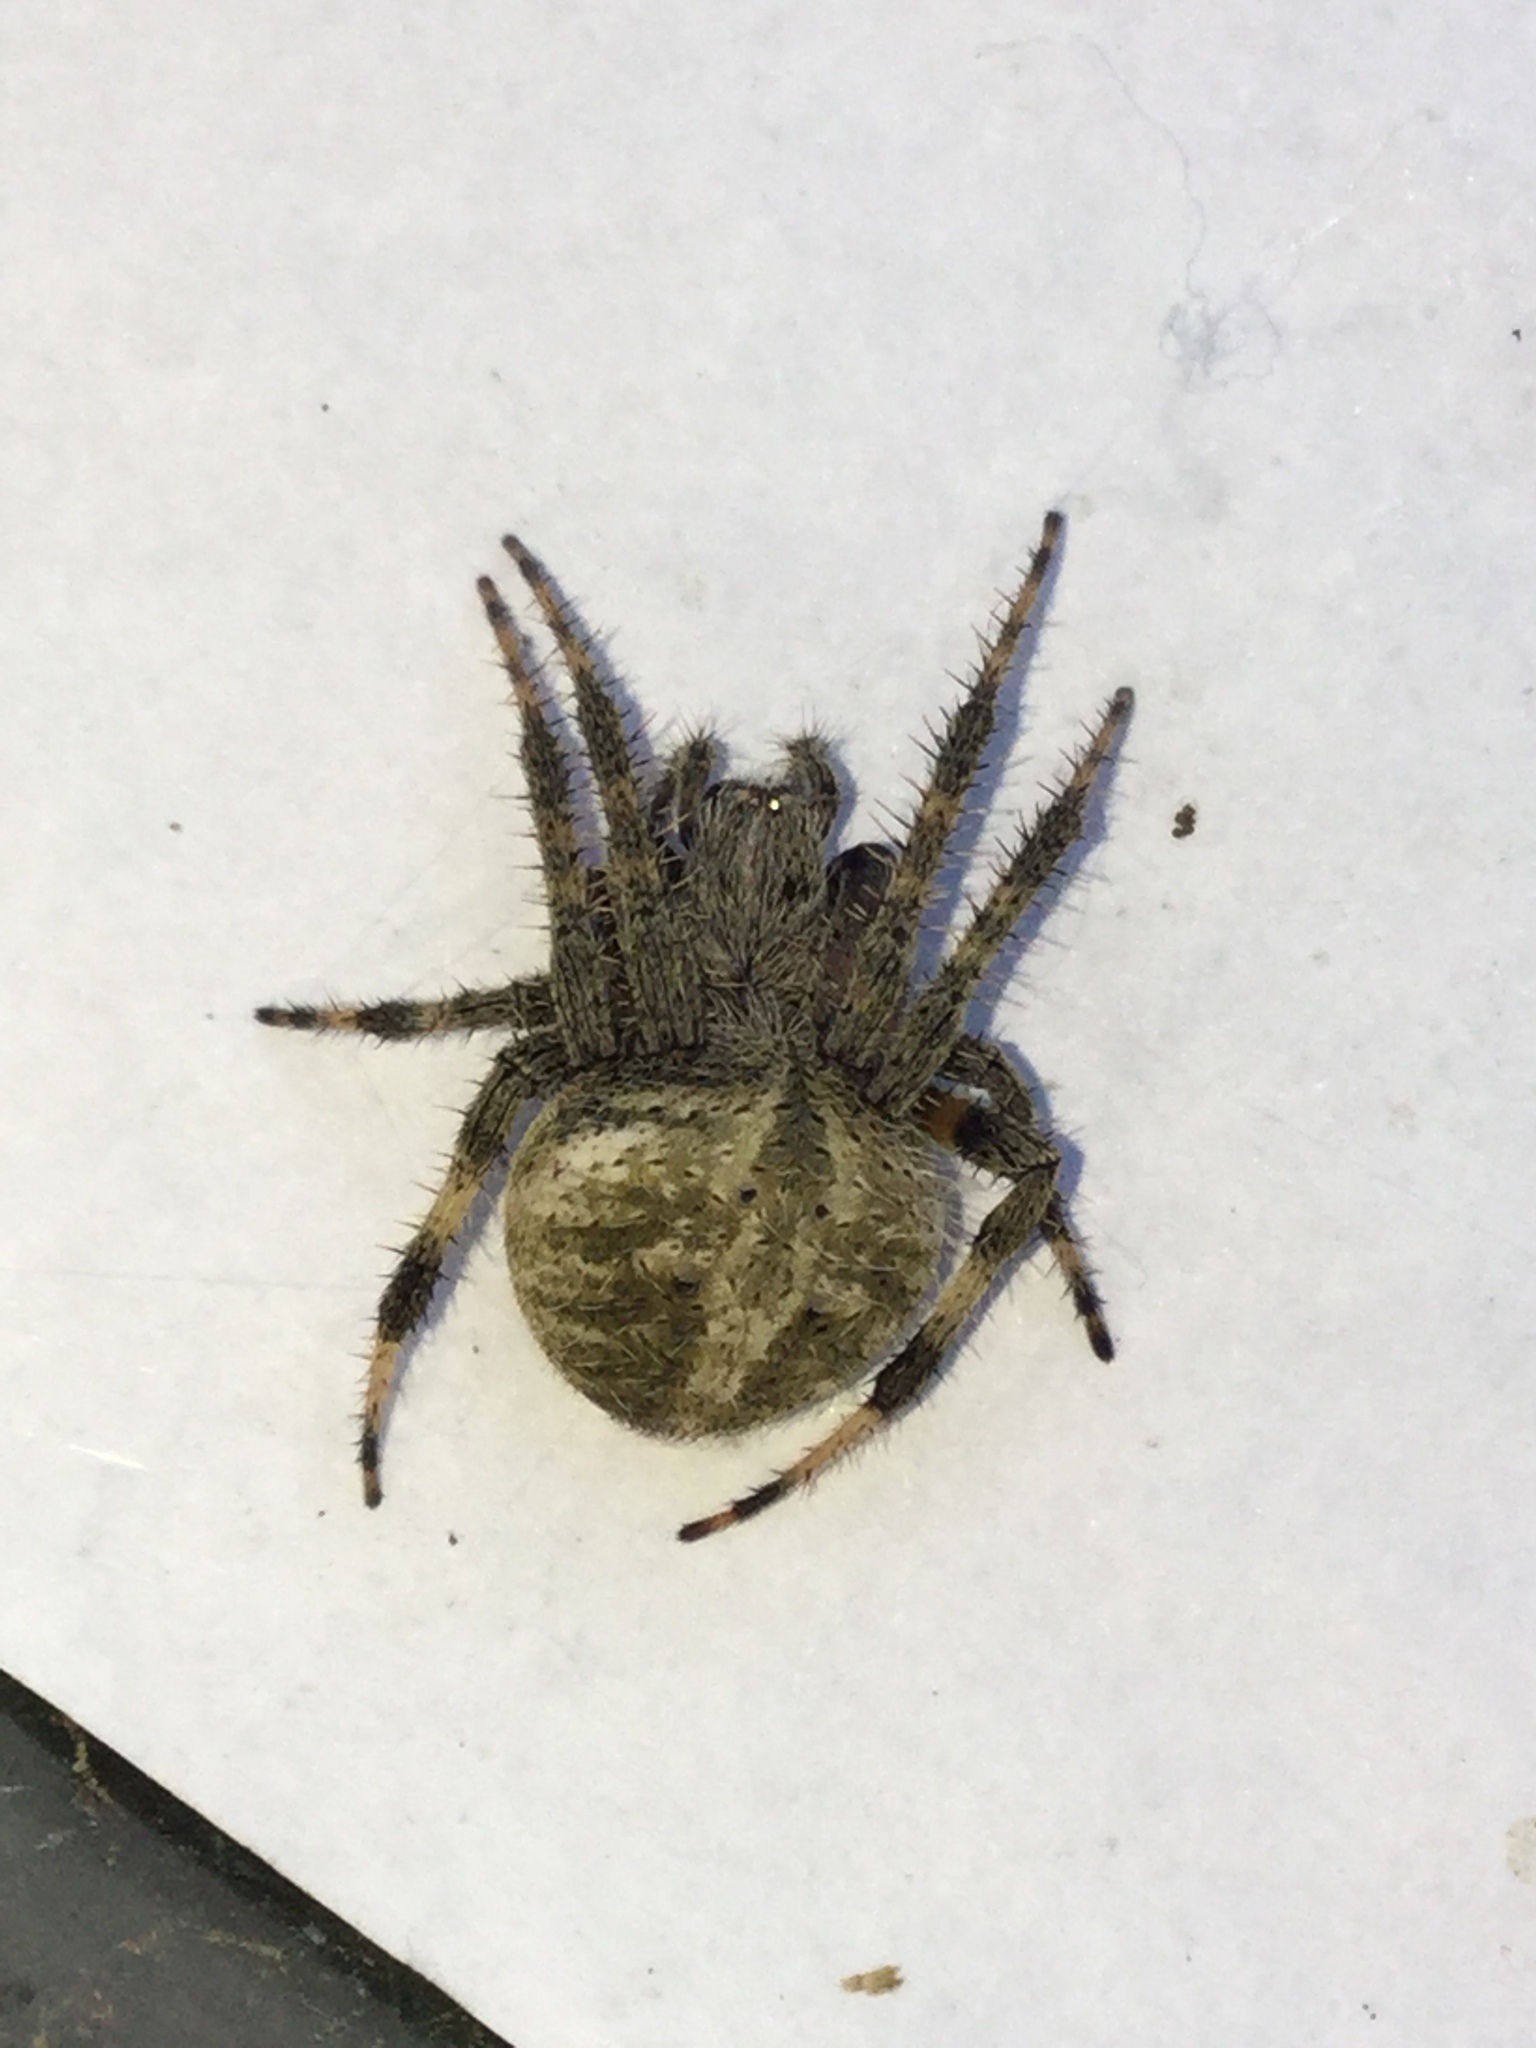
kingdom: Animalia
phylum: Arthropoda
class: Arachnida
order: Araneae
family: Araneidae
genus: Neoscona
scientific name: Neoscona crucifera
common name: Spotted orbweaver
